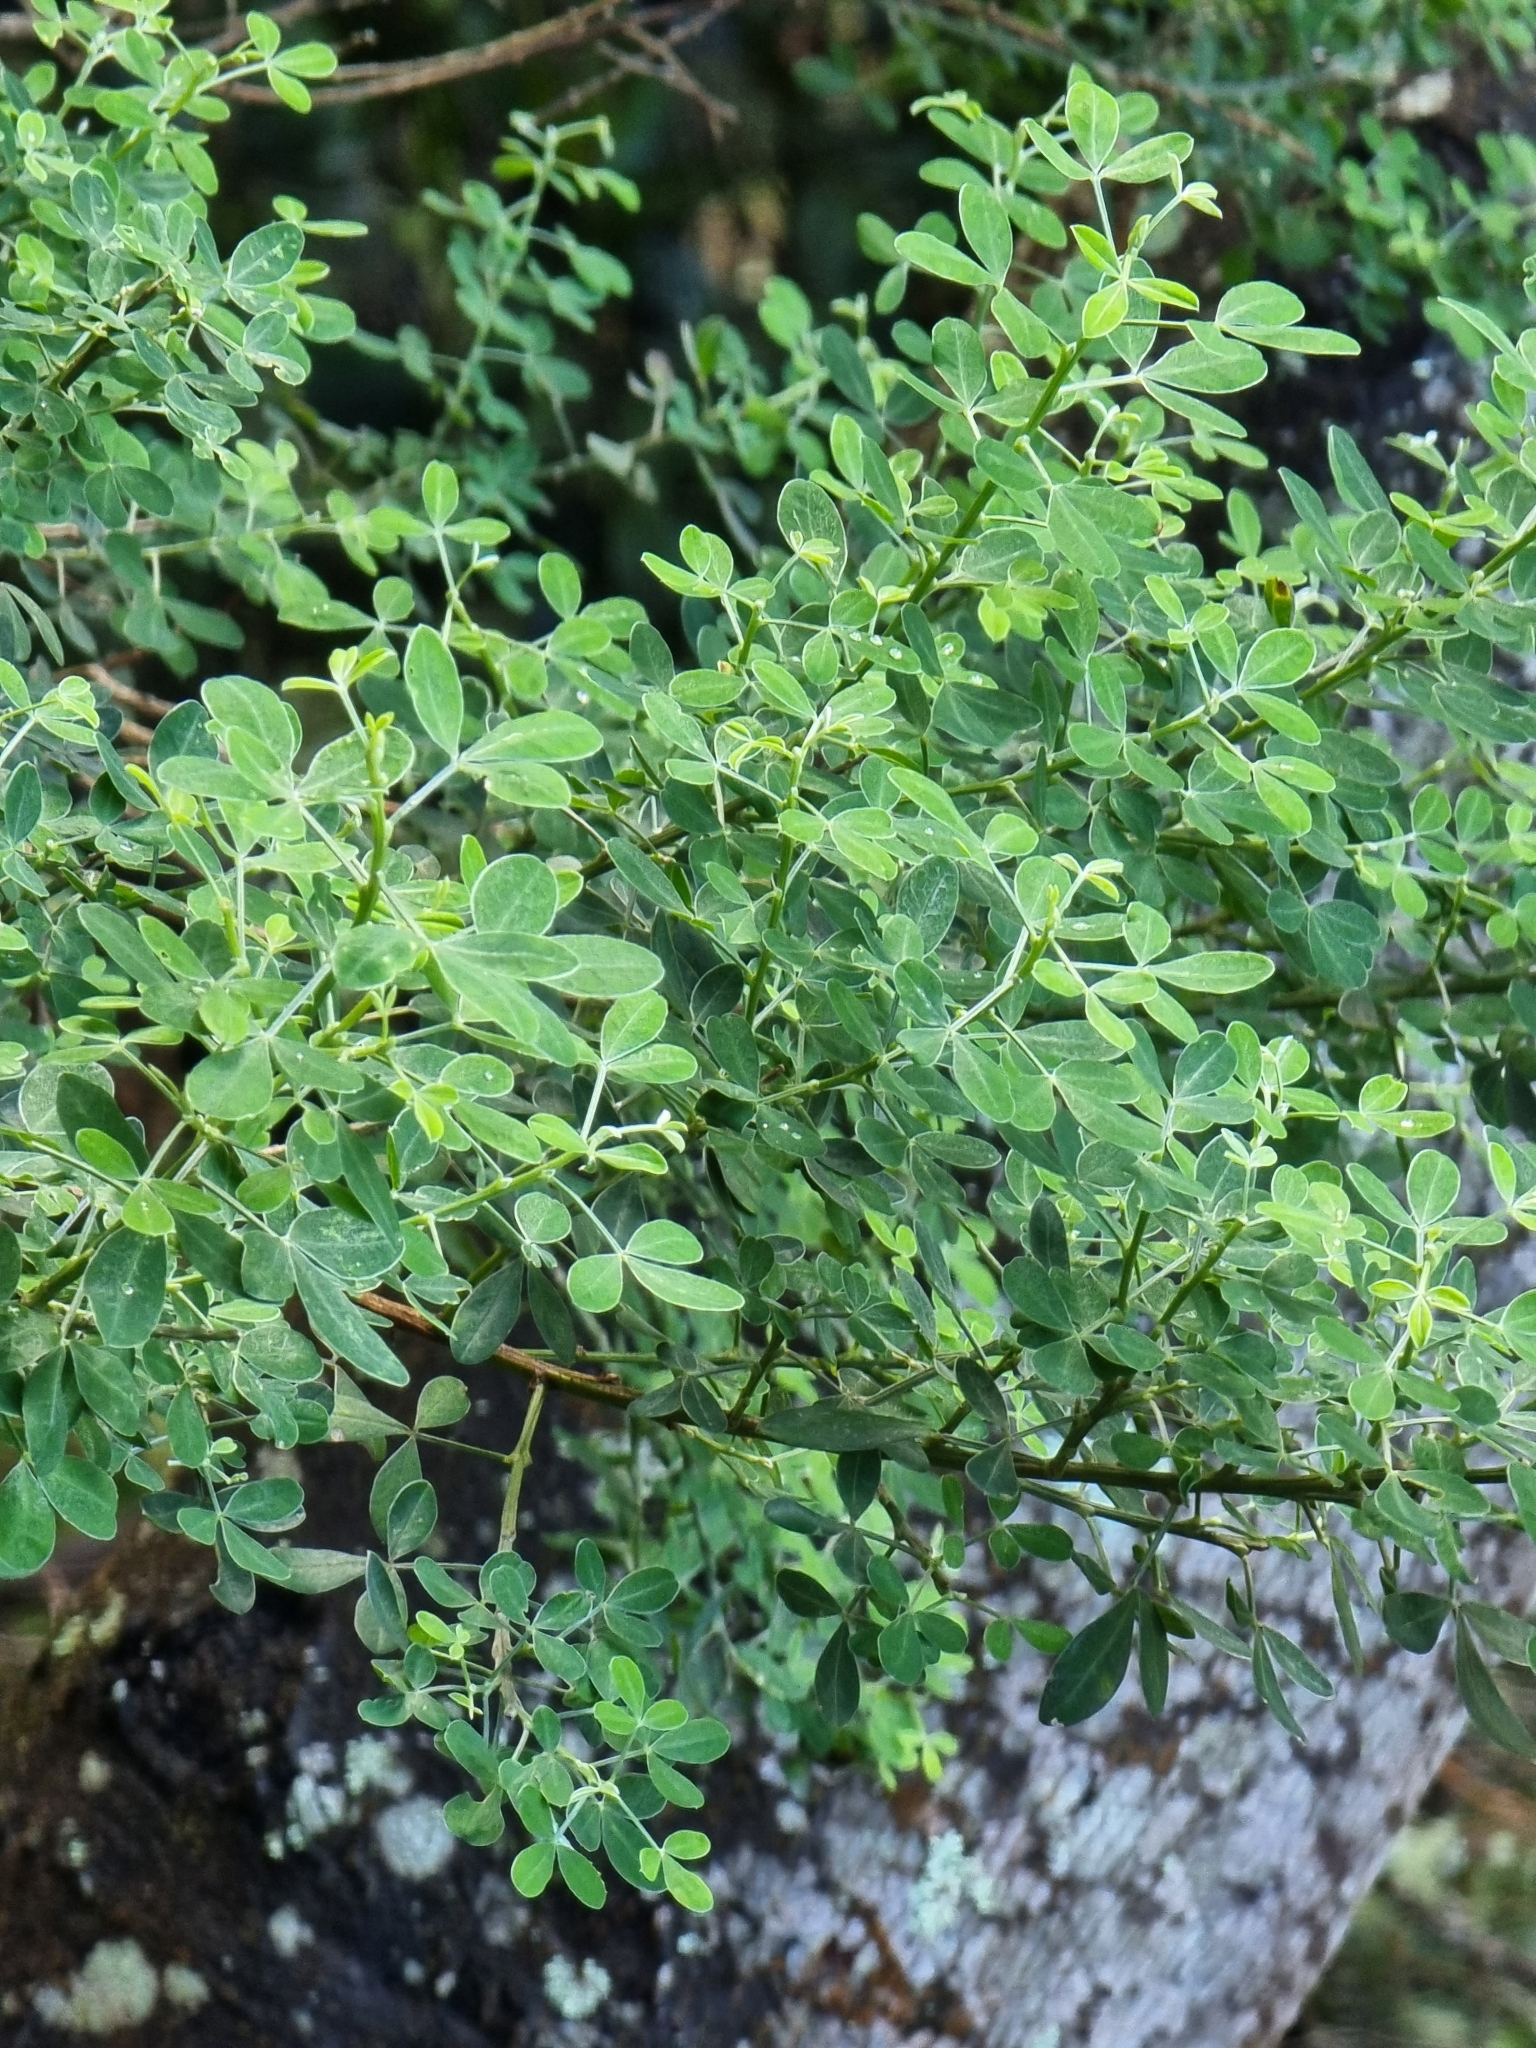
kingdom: Plantae
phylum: Tracheophyta
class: Magnoliopsida
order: Fabales
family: Fabaceae
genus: Genista
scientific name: Genista maderensis
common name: Madeira dyer's greenweed
